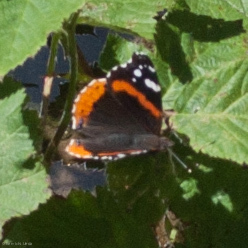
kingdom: Animalia
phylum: Arthropoda
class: Insecta
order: Lepidoptera
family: Nymphalidae
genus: Vanessa
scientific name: Vanessa atalanta
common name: Red admiral
